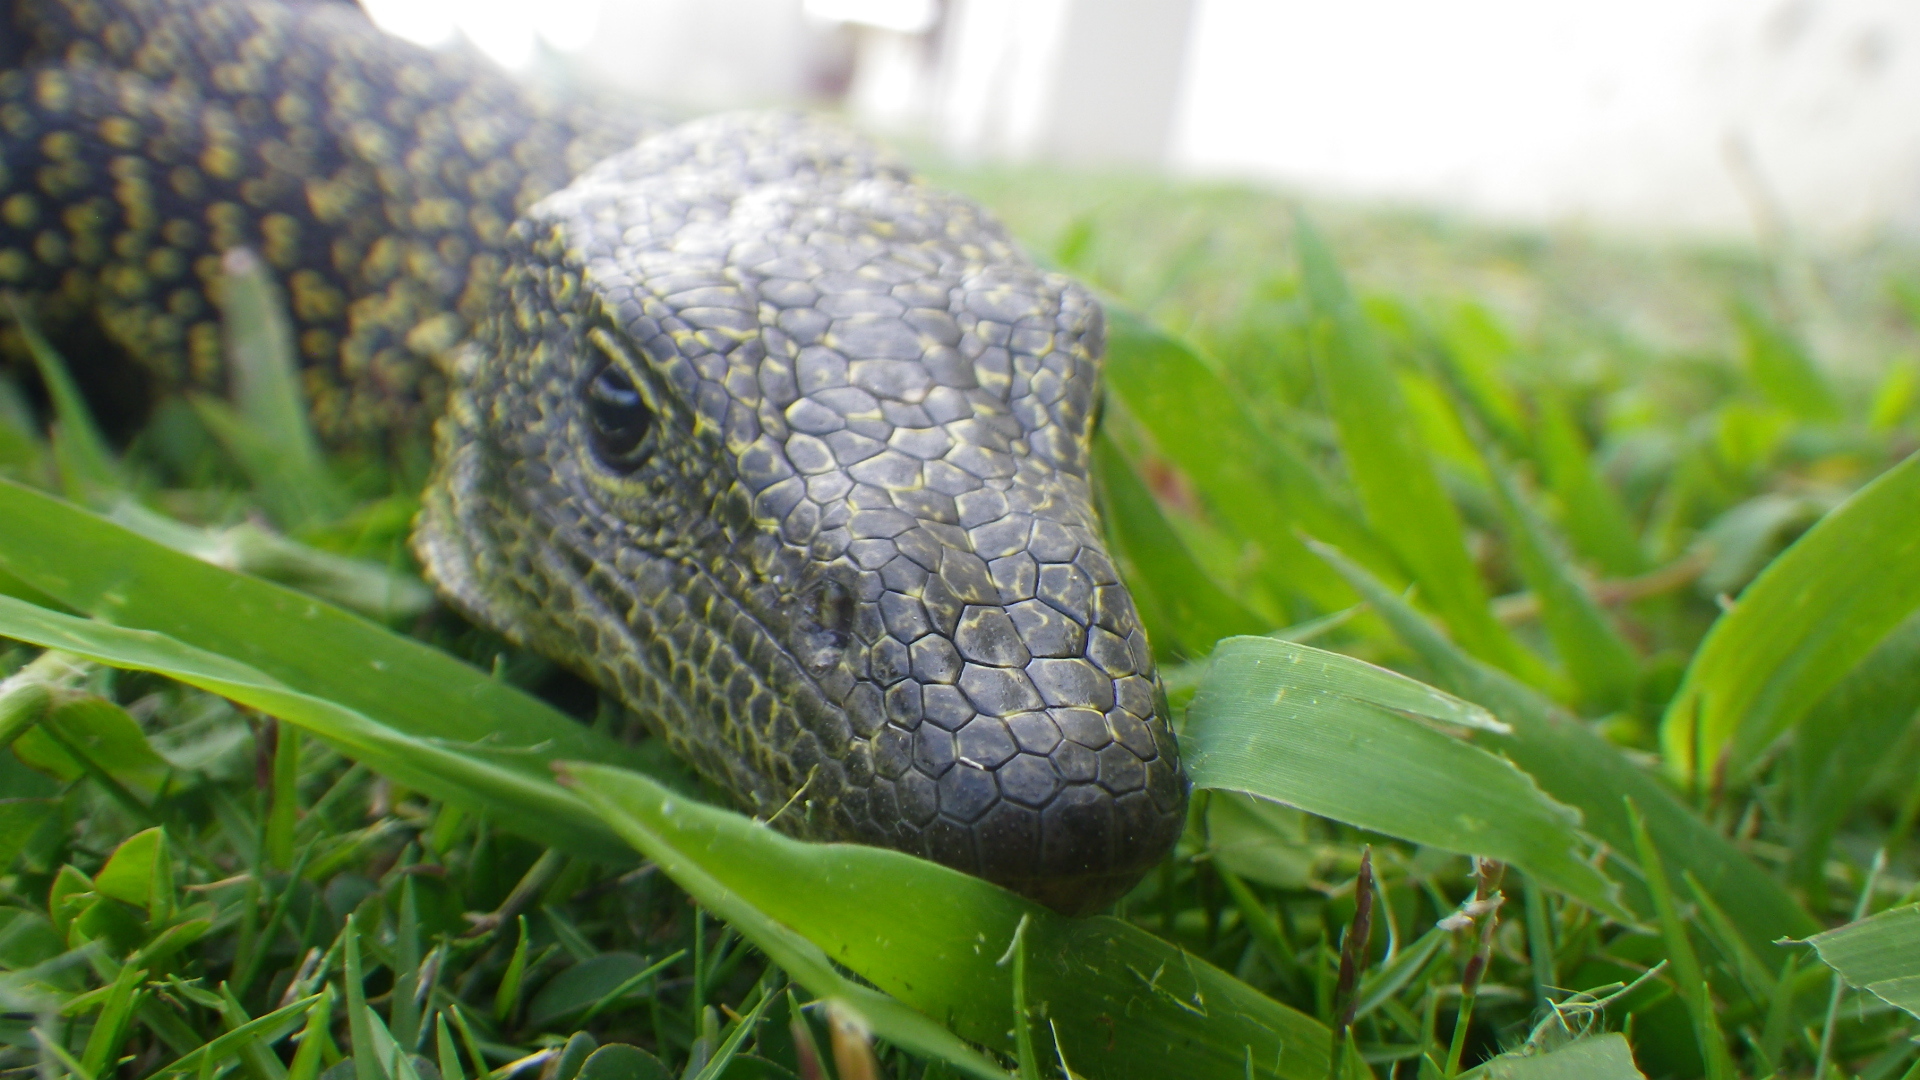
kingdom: Animalia
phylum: Chordata
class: Squamata
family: Varanidae
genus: Varanus
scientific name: Varanus tsukamotoi
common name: Mariana monitor
